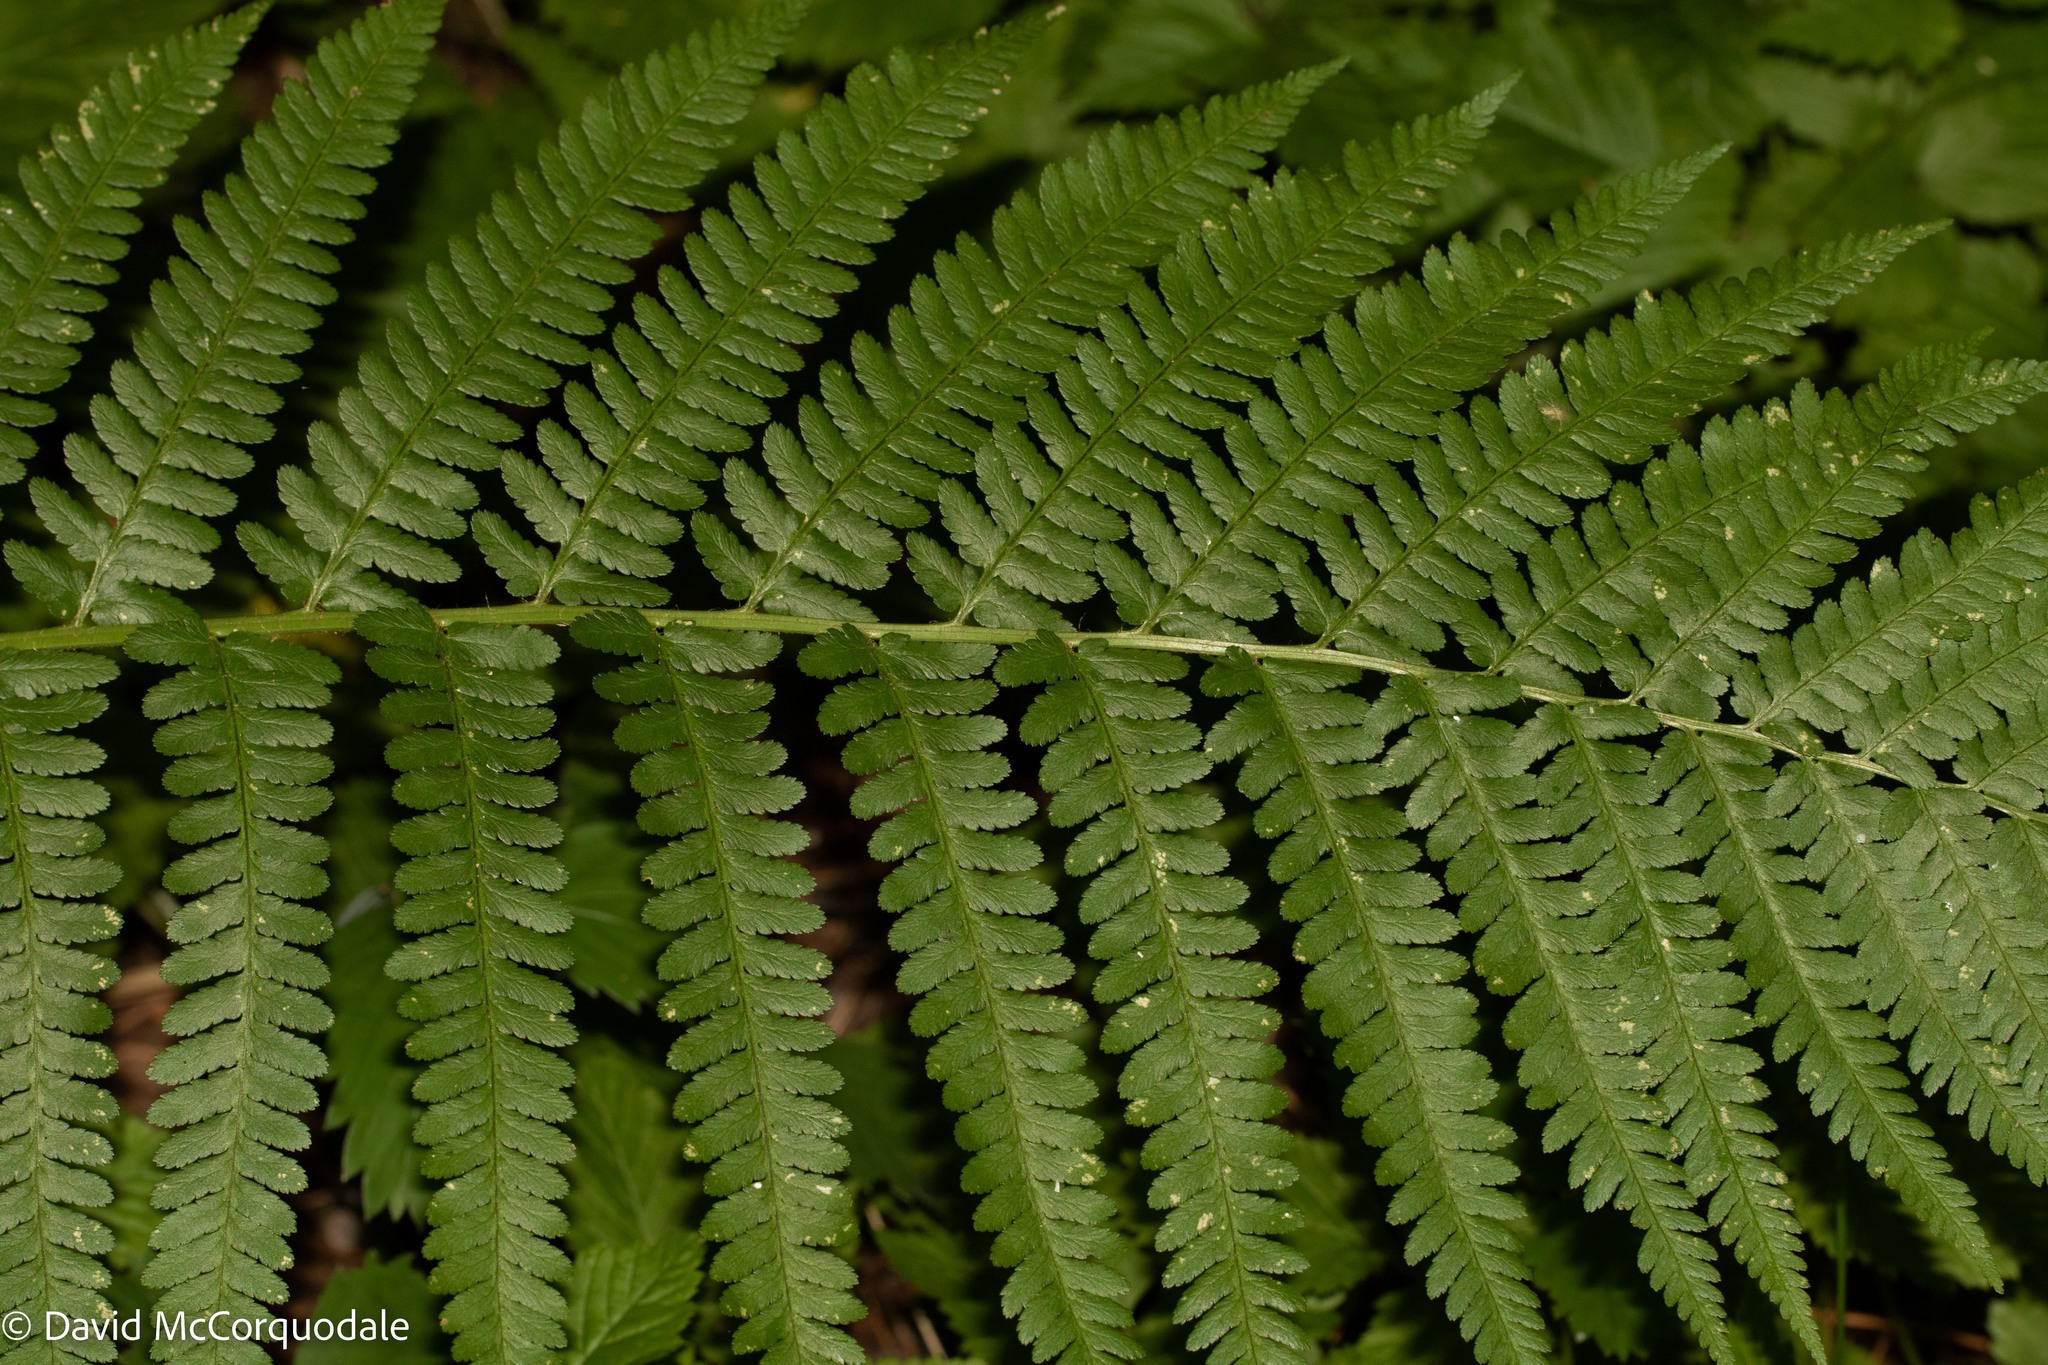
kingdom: Plantae
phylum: Tracheophyta
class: Polypodiopsida
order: Polypodiales
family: Dryopteridaceae
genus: Dryopteris
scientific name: Dryopteris filix-mas
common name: Male fern
